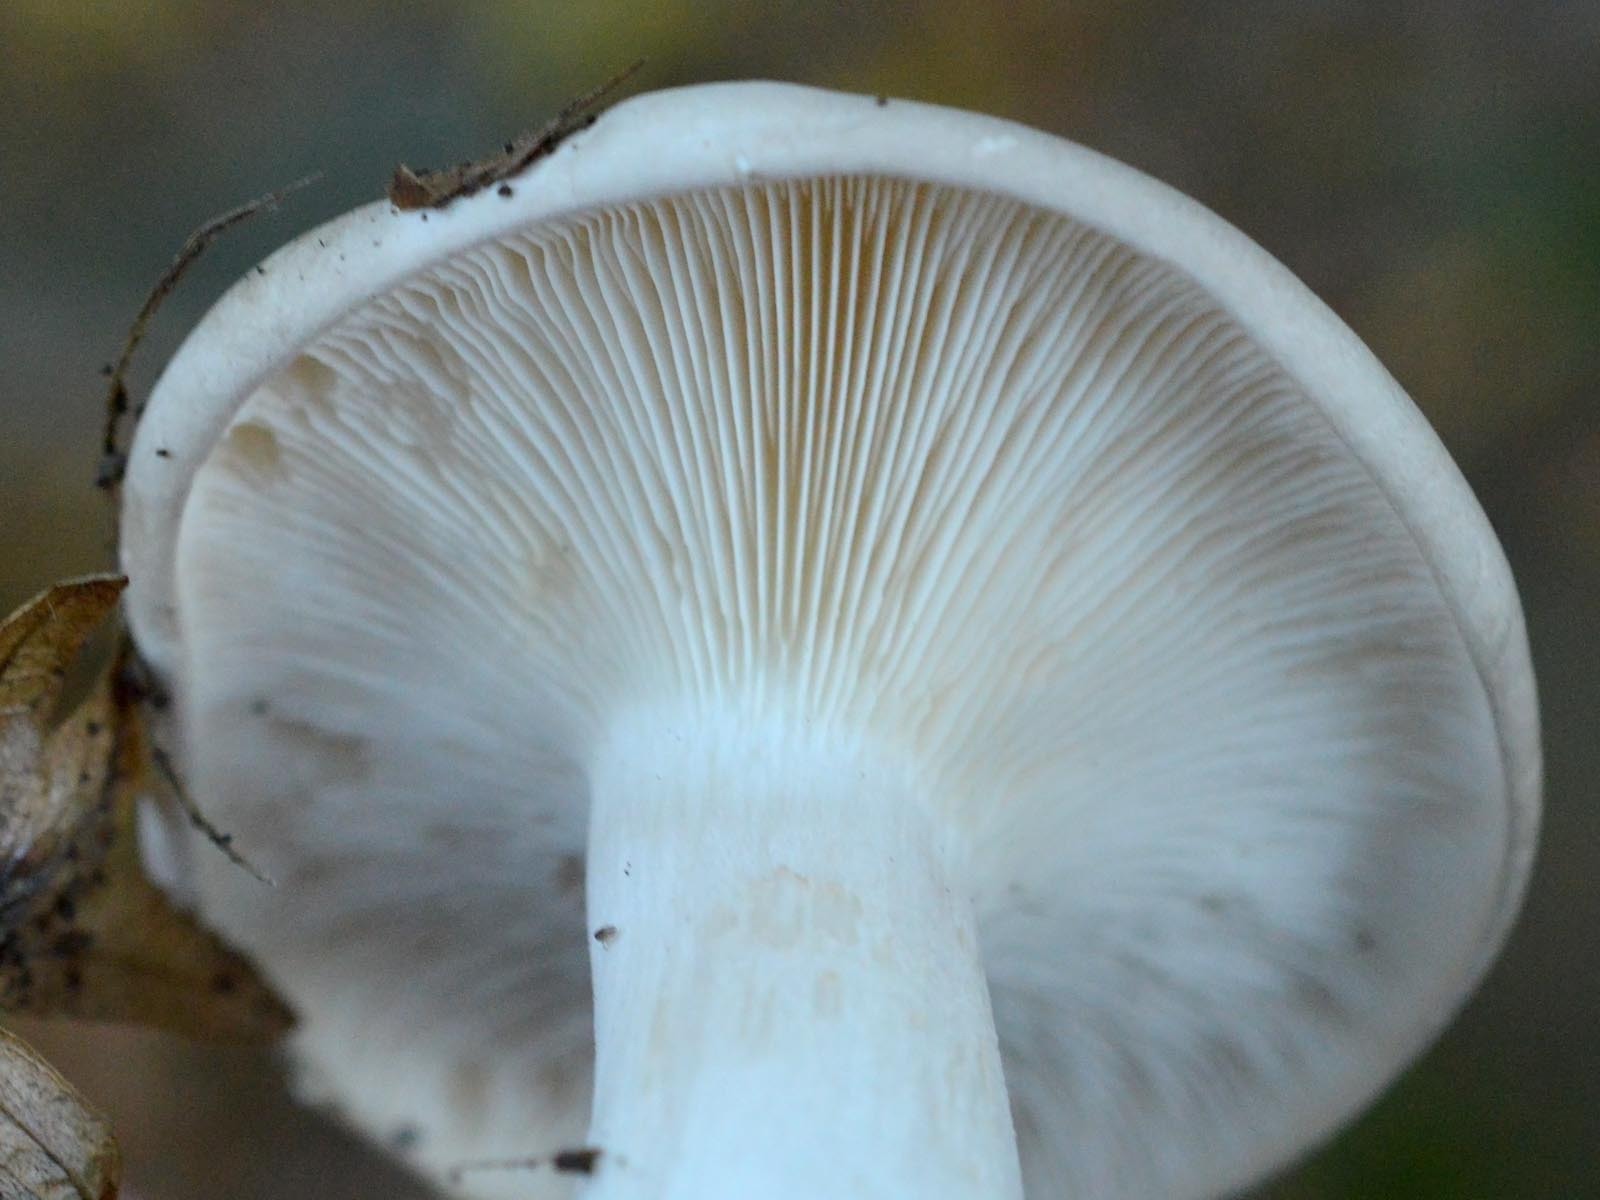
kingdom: Fungi
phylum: Basidiomycota
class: Agaricomycetes
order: Agaricales
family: Tricholomataceae
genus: Clitocybe
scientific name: Clitocybe nebularis
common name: Clouded agaric
